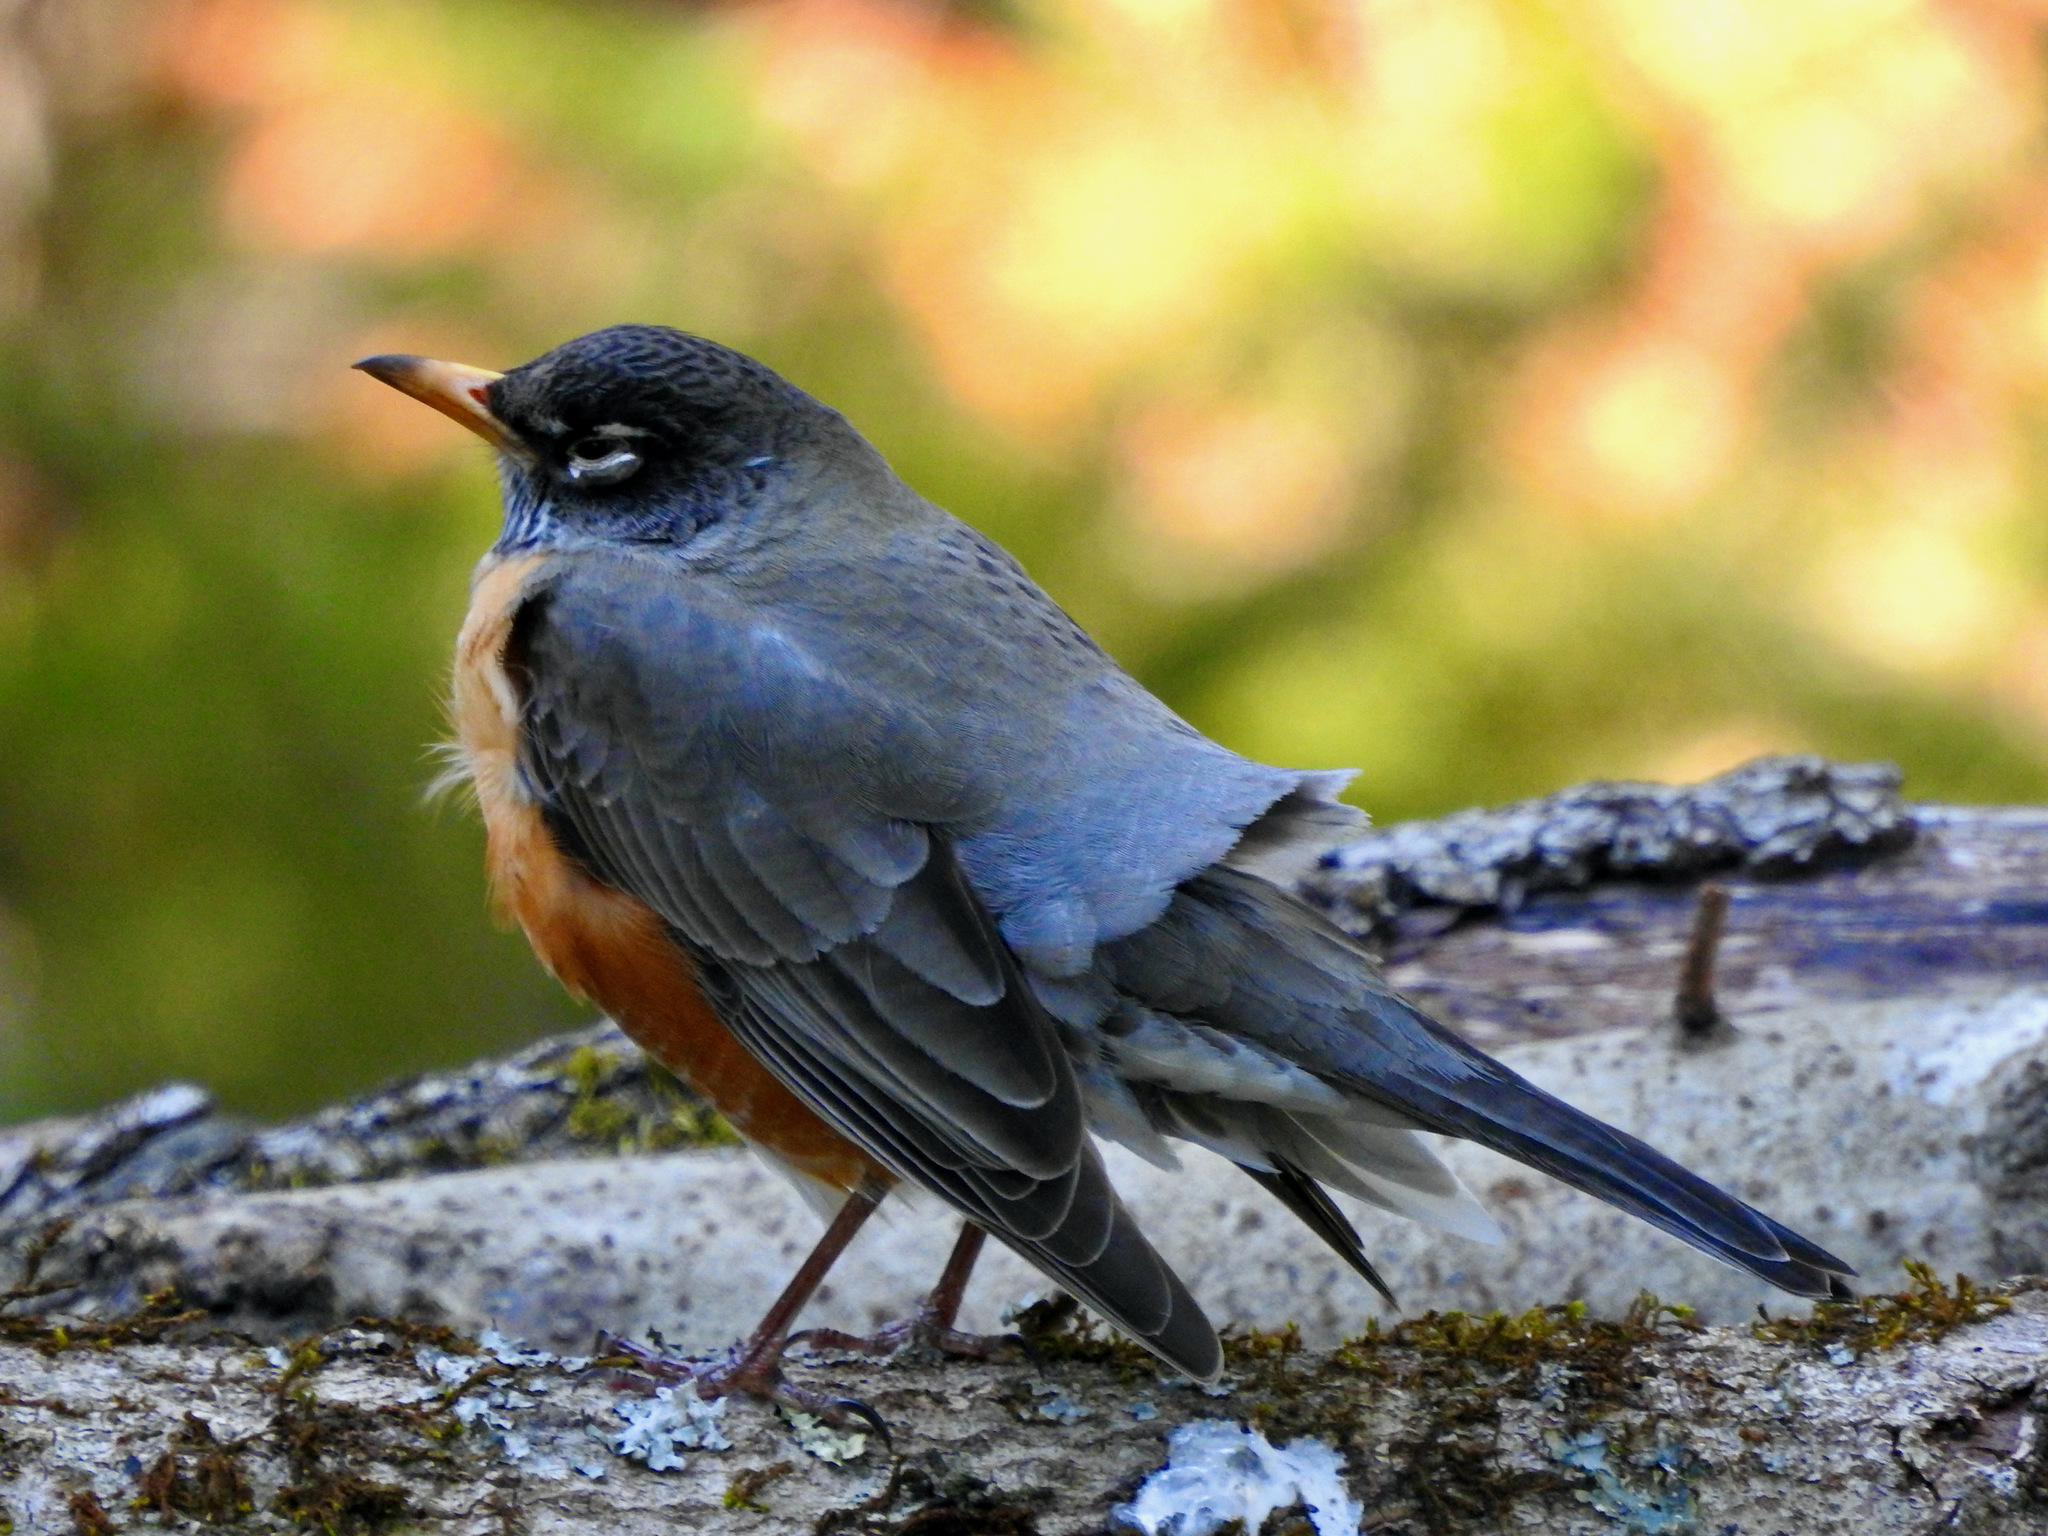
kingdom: Animalia
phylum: Chordata
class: Aves
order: Passeriformes
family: Turdidae
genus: Turdus
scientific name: Turdus migratorius
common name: American robin
